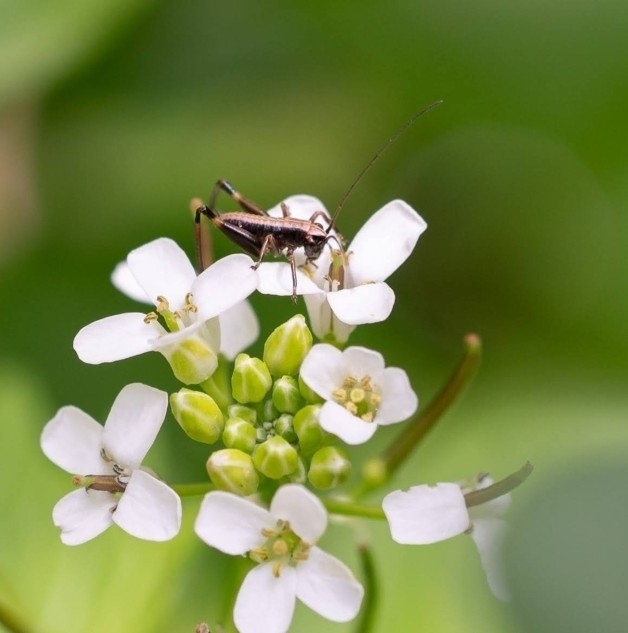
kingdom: Animalia
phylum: Arthropoda
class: Insecta
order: Orthoptera
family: Tettigoniidae
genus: Pholidoptera
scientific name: Pholidoptera griseoaptera
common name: Dark bush-cricket
